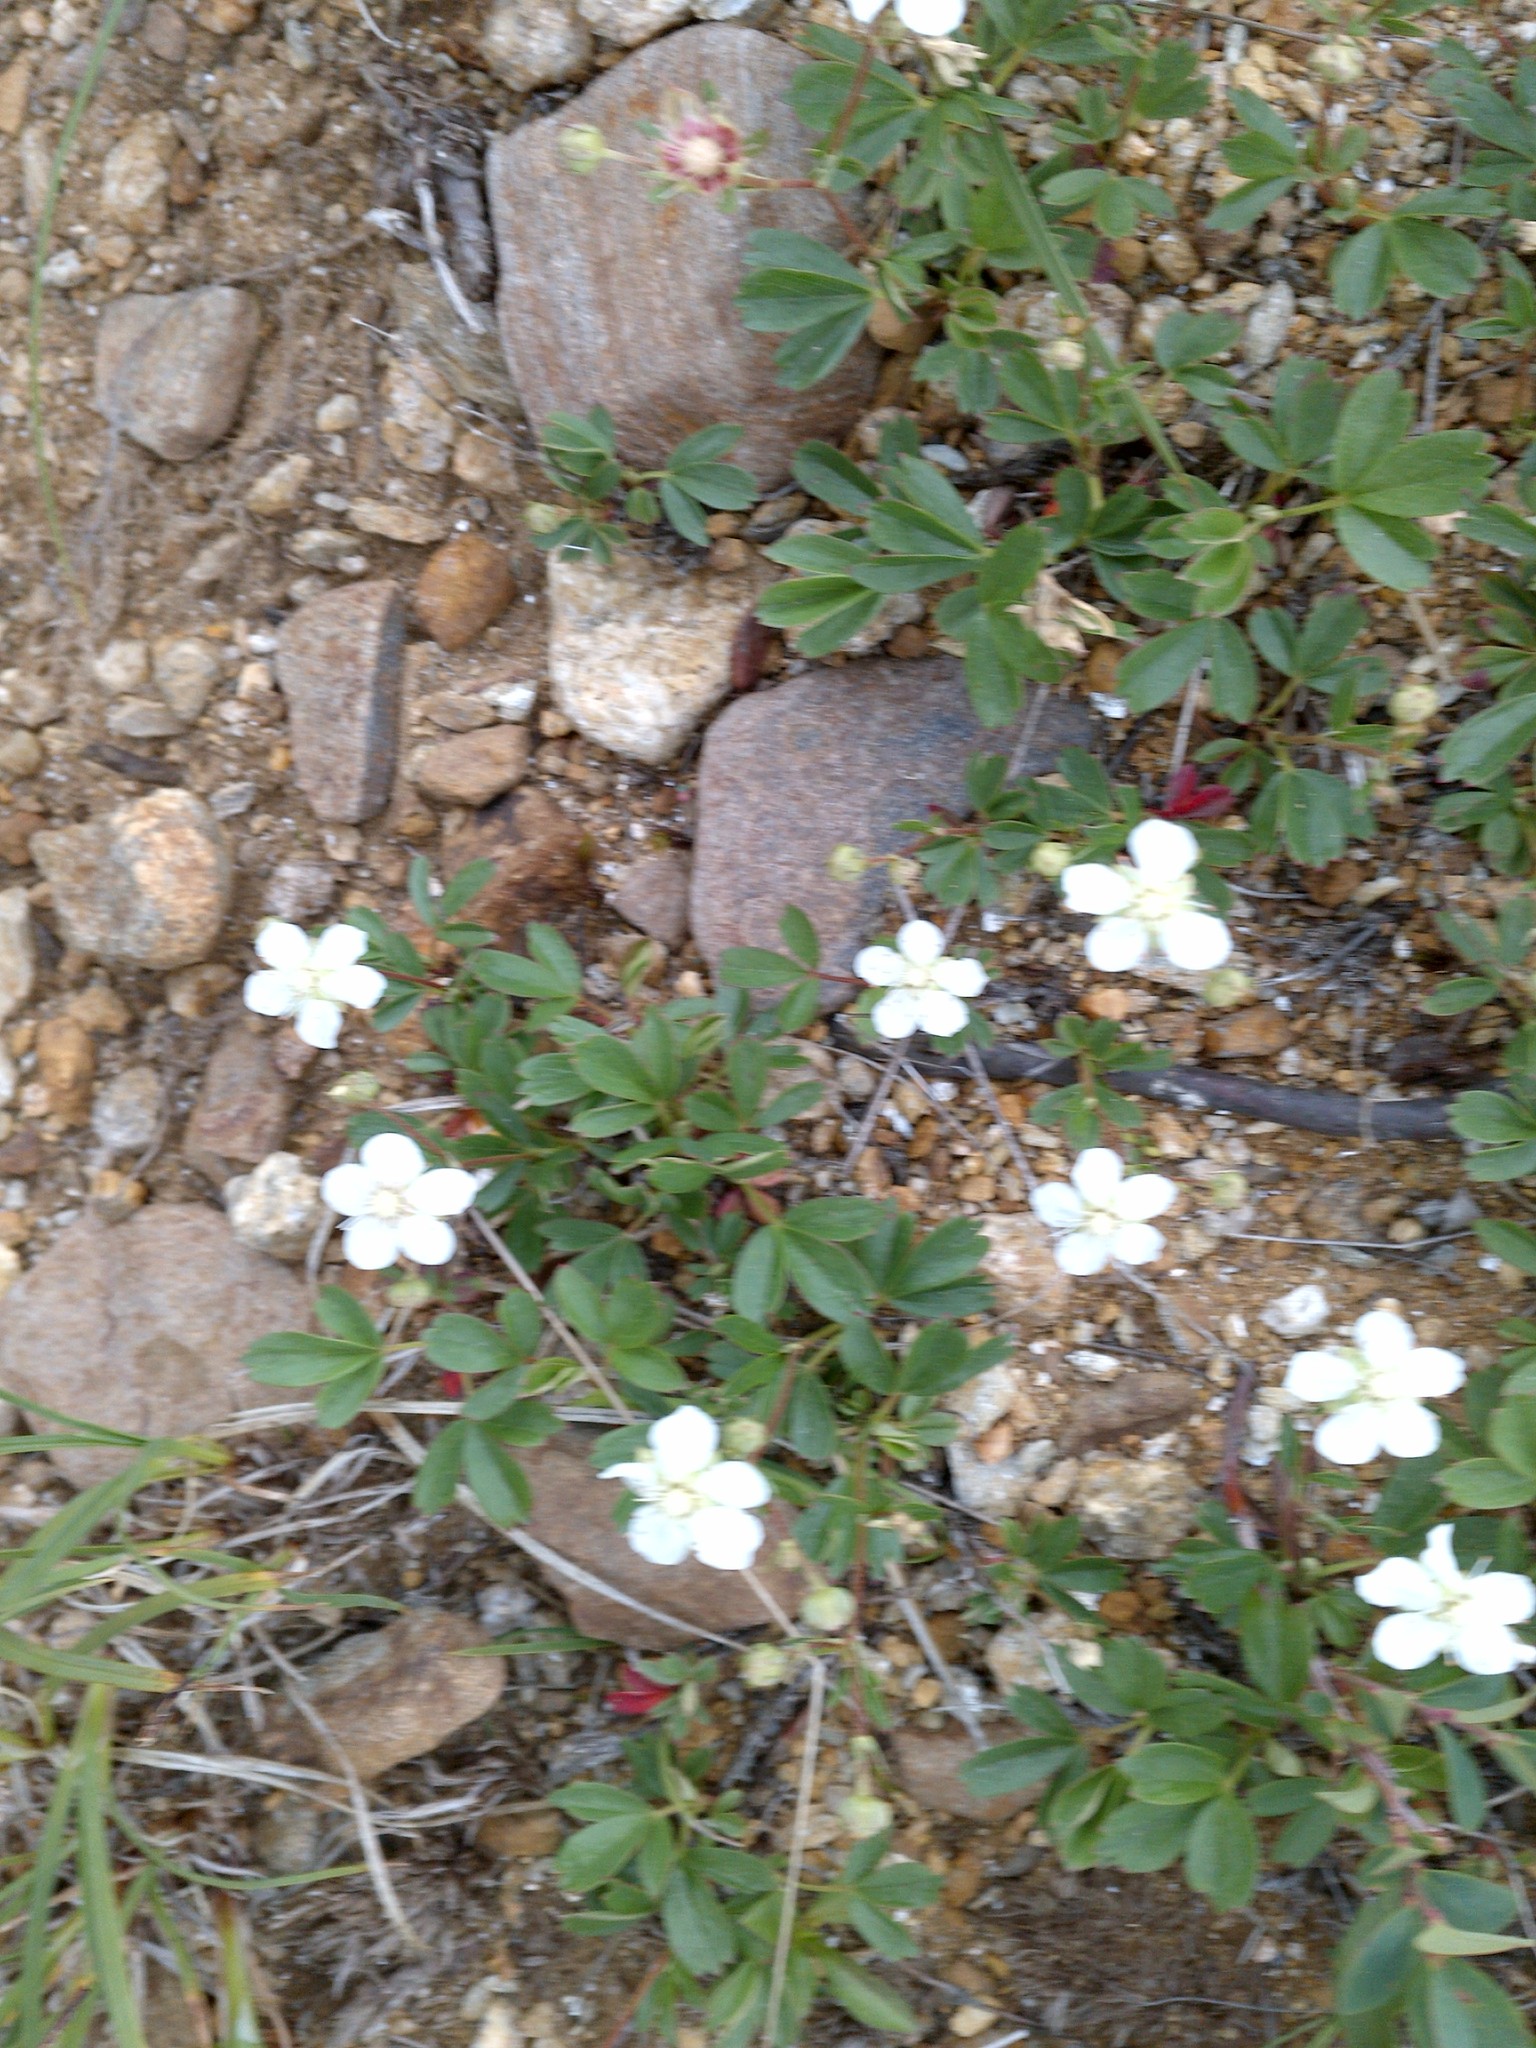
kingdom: Plantae
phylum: Tracheophyta
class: Magnoliopsida
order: Rosales
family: Rosaceae
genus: Sibbaldia
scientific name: Sibbaldia tridentata
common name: Three-toothed cinquefoil
